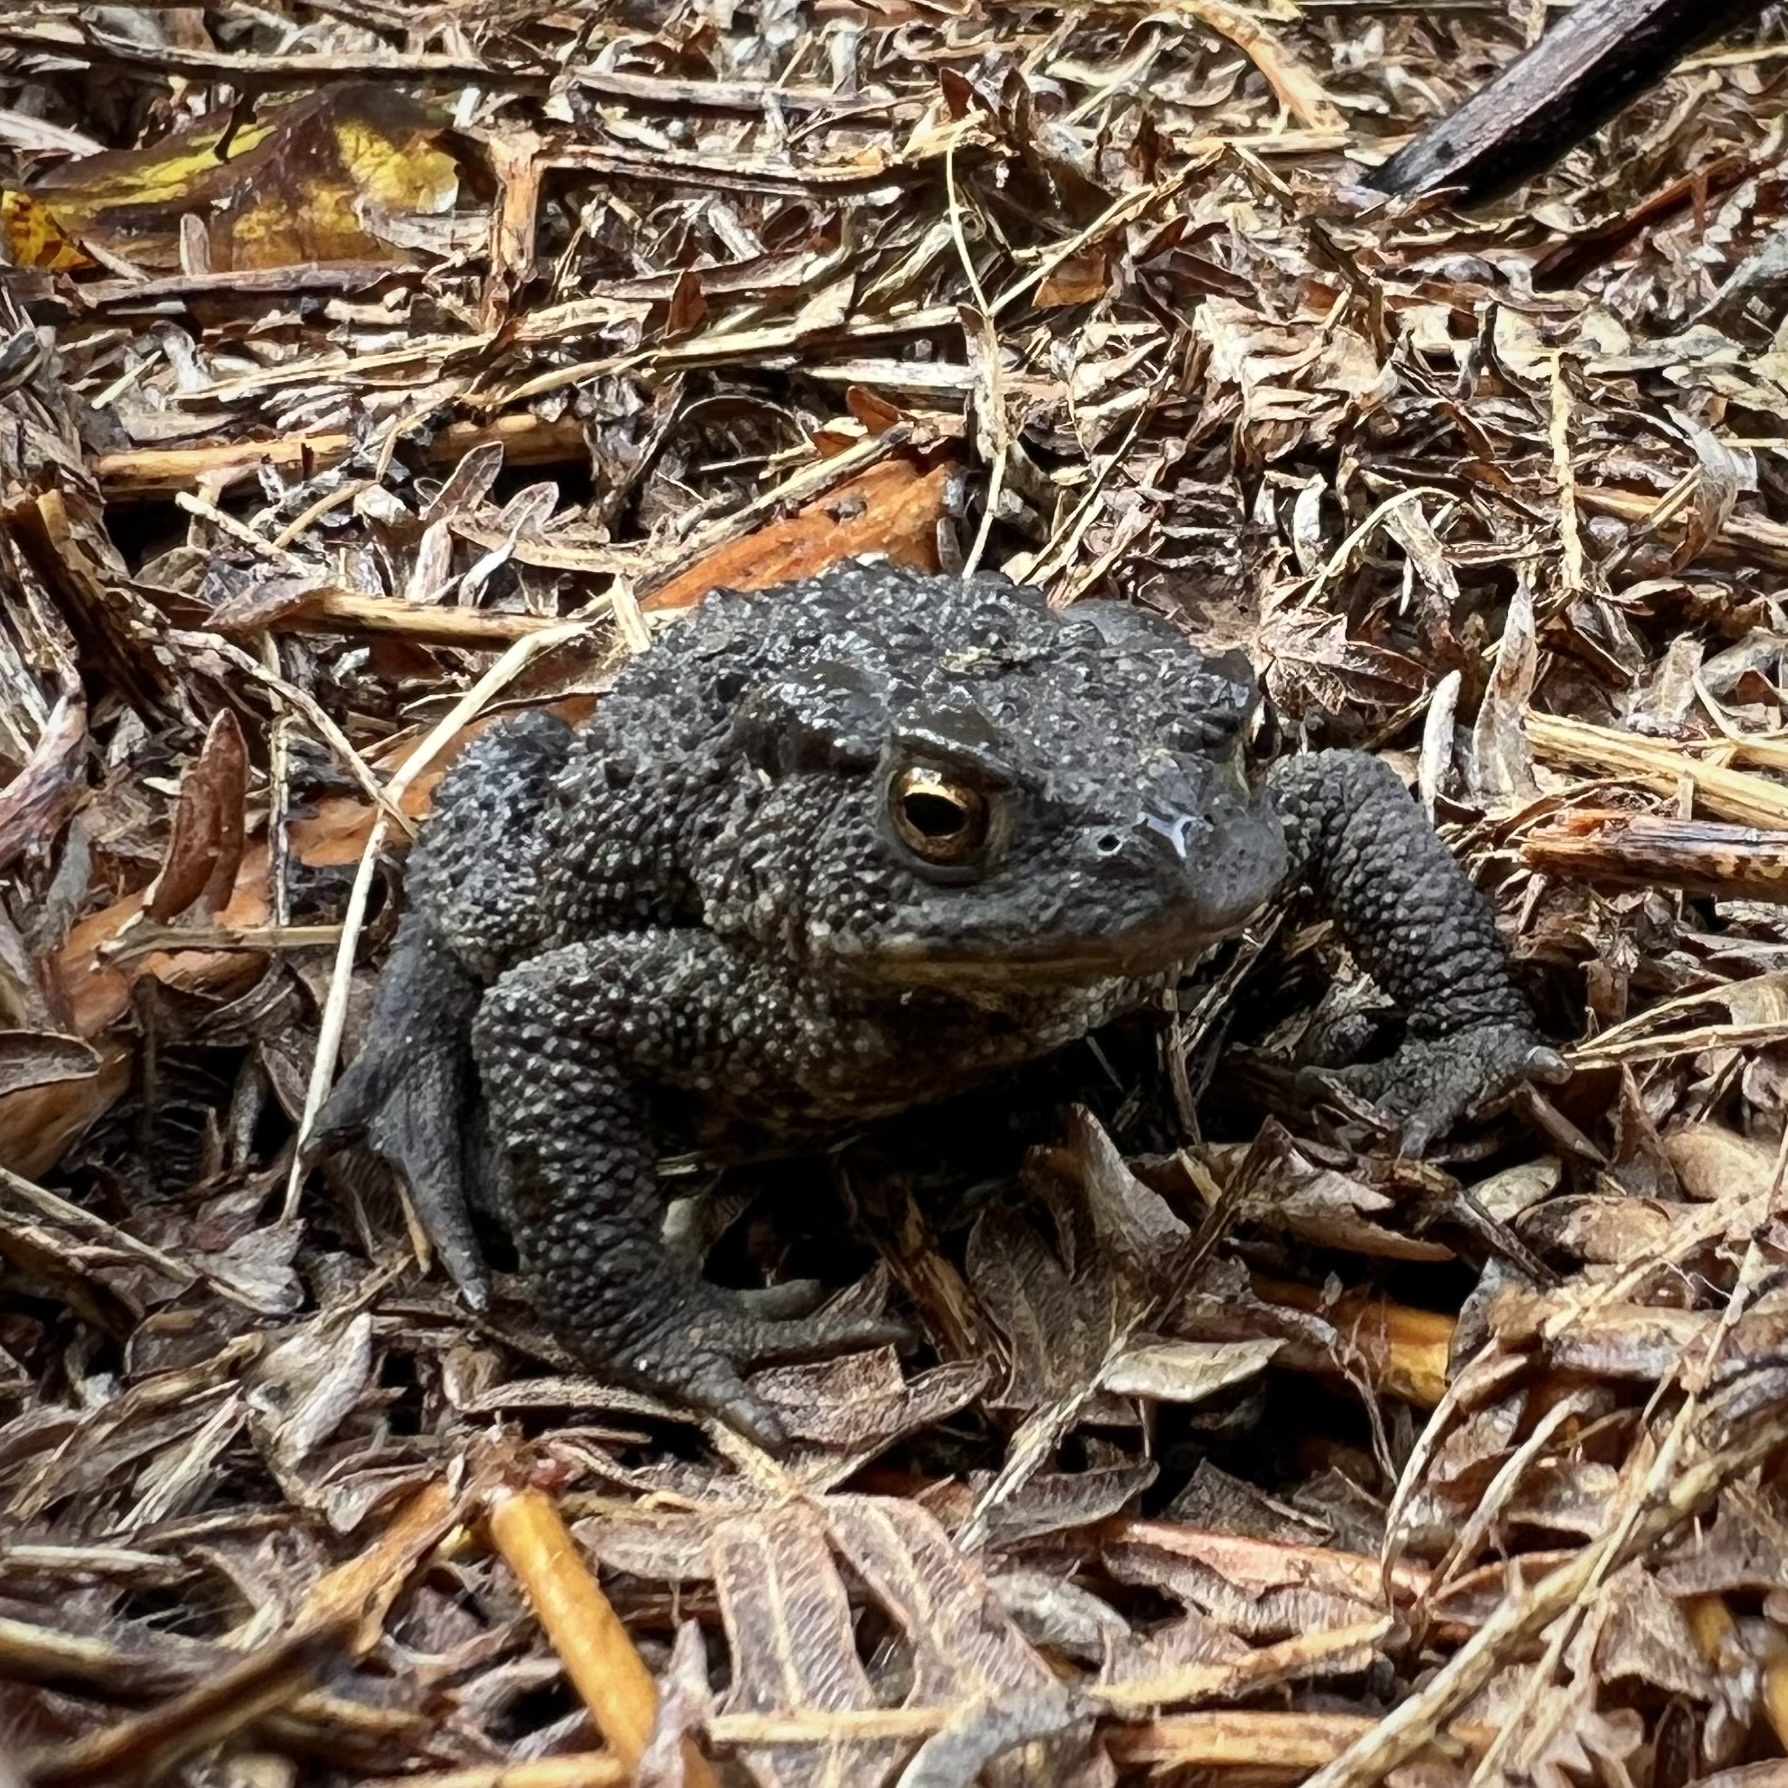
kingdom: Animalia
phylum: Chordata
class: Amphibia
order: Anura
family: Bufonidae
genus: Bufo
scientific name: Bufo bufo
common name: Common toad
